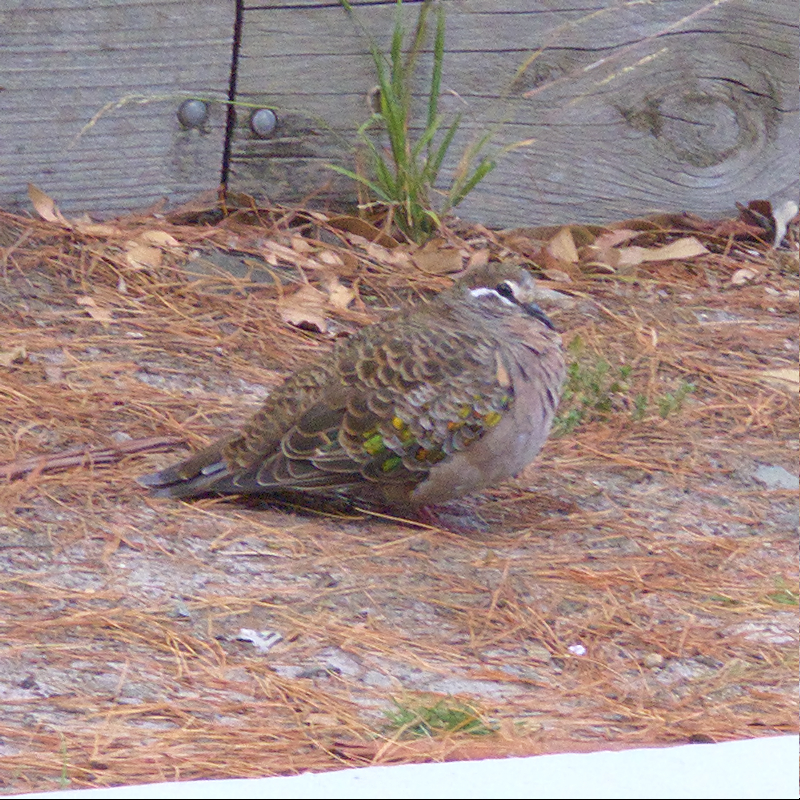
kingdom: Animalia
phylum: Chordata
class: Aves
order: Columbiformes
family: Columbidae
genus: Phaps
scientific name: Phaps chalcoptera
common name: Common bronzewing
